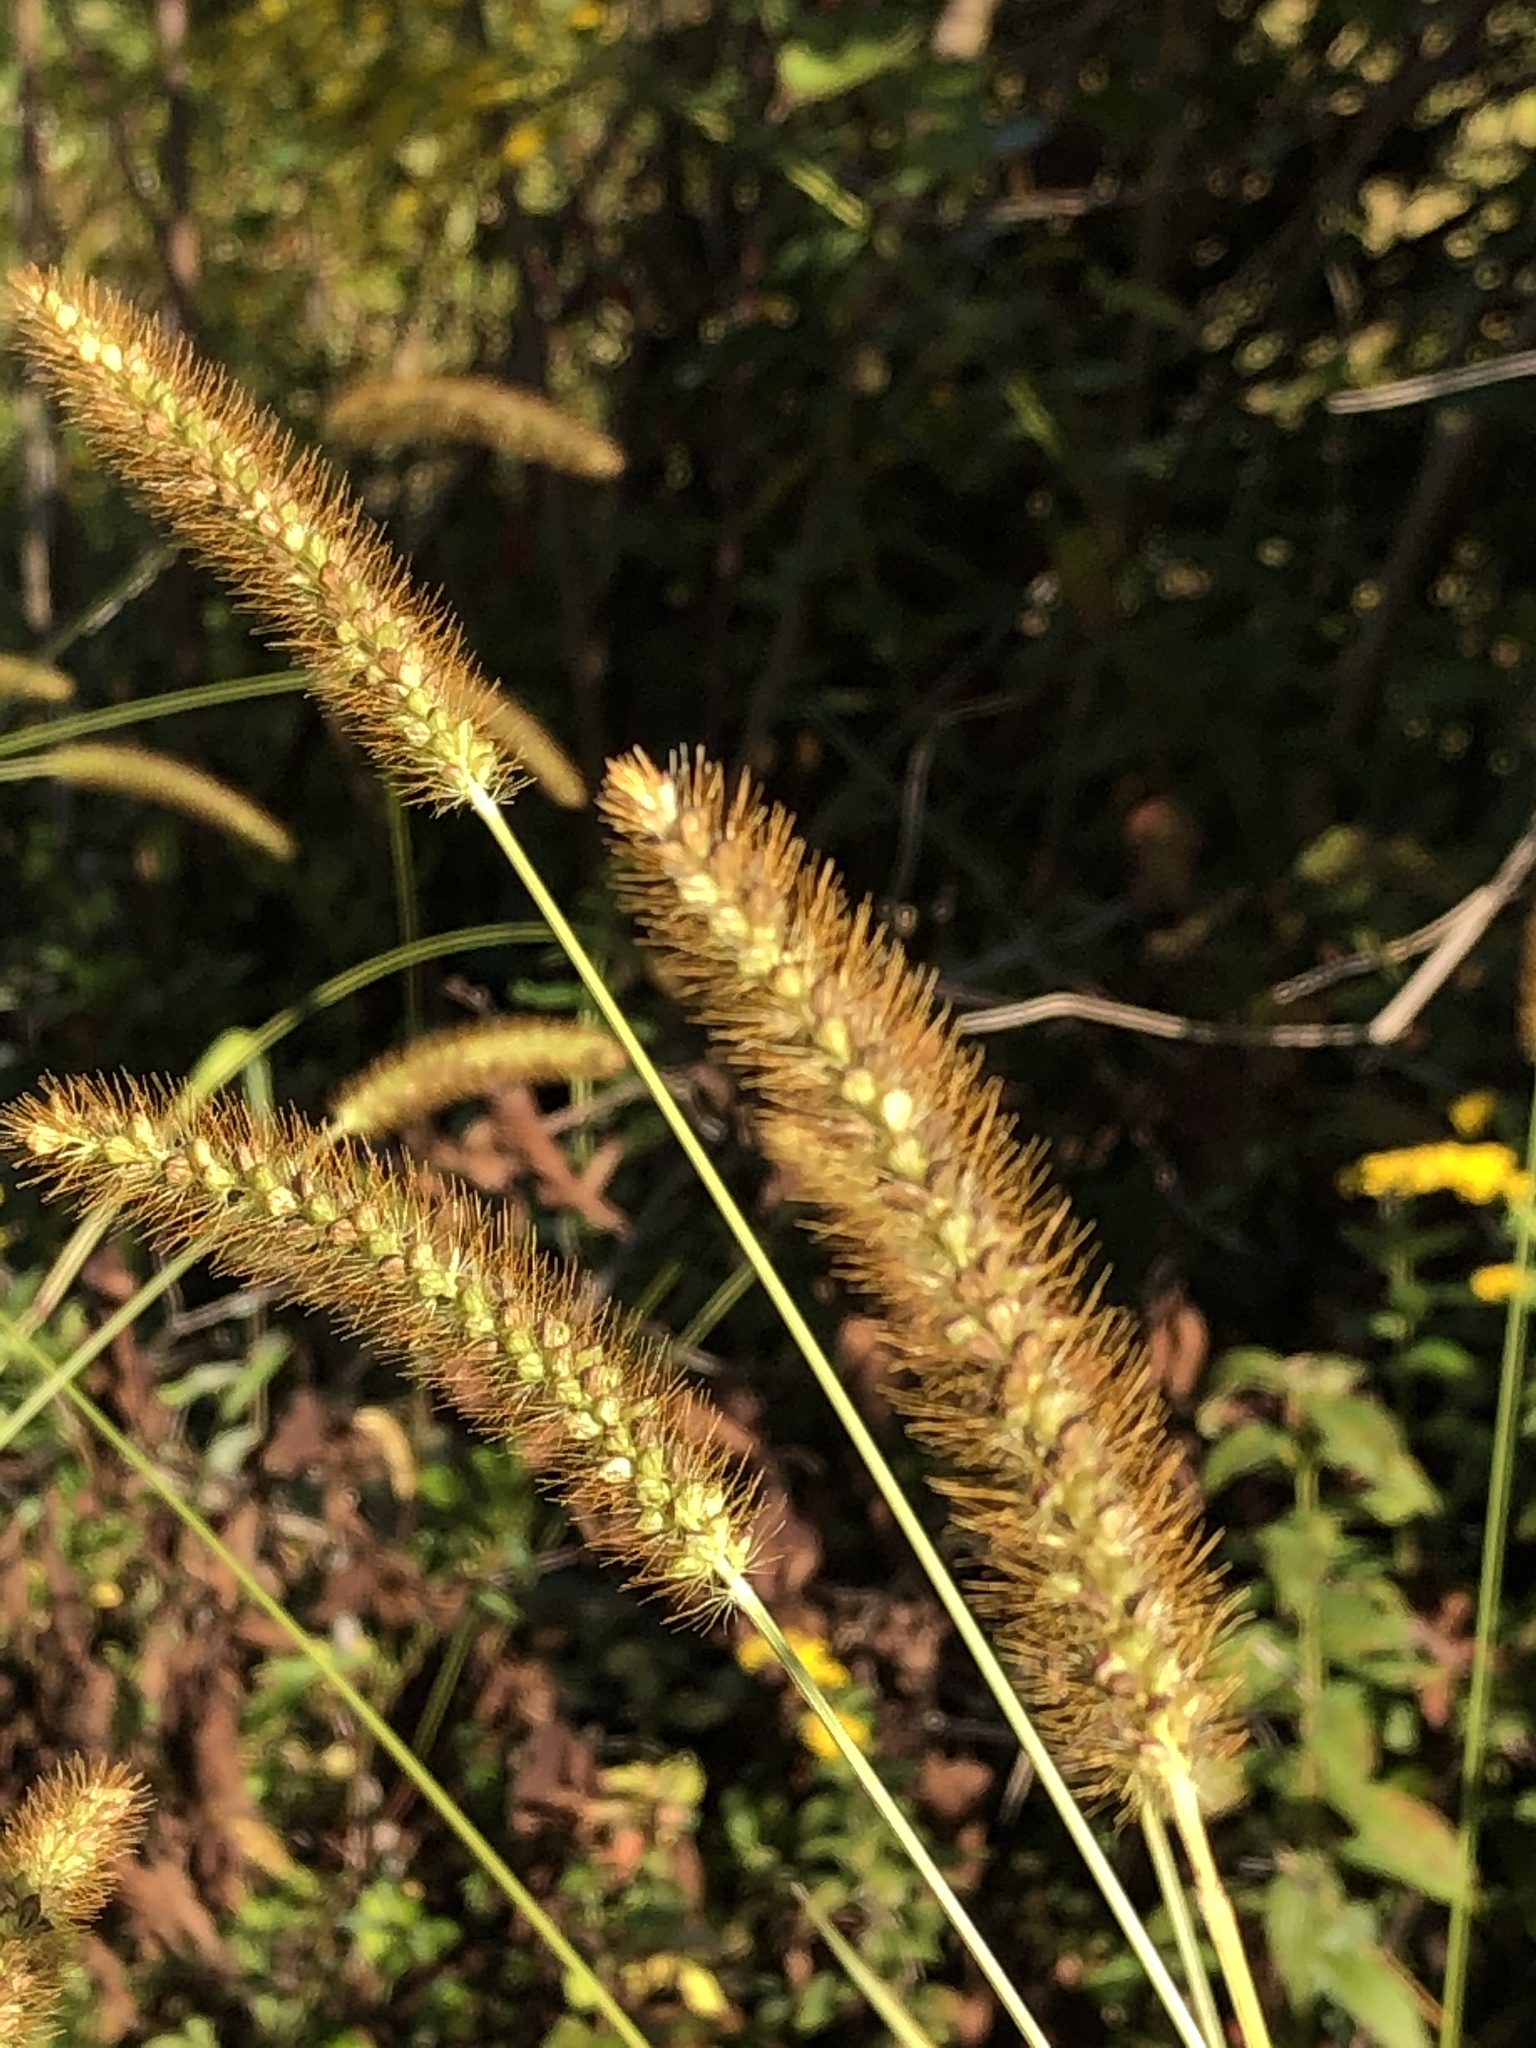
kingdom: Plantae
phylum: Tracheophyta
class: Liliopsida
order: Poales
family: Poaceae
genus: Setaria
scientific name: Setaria pumila
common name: Yellow bristle-grass
